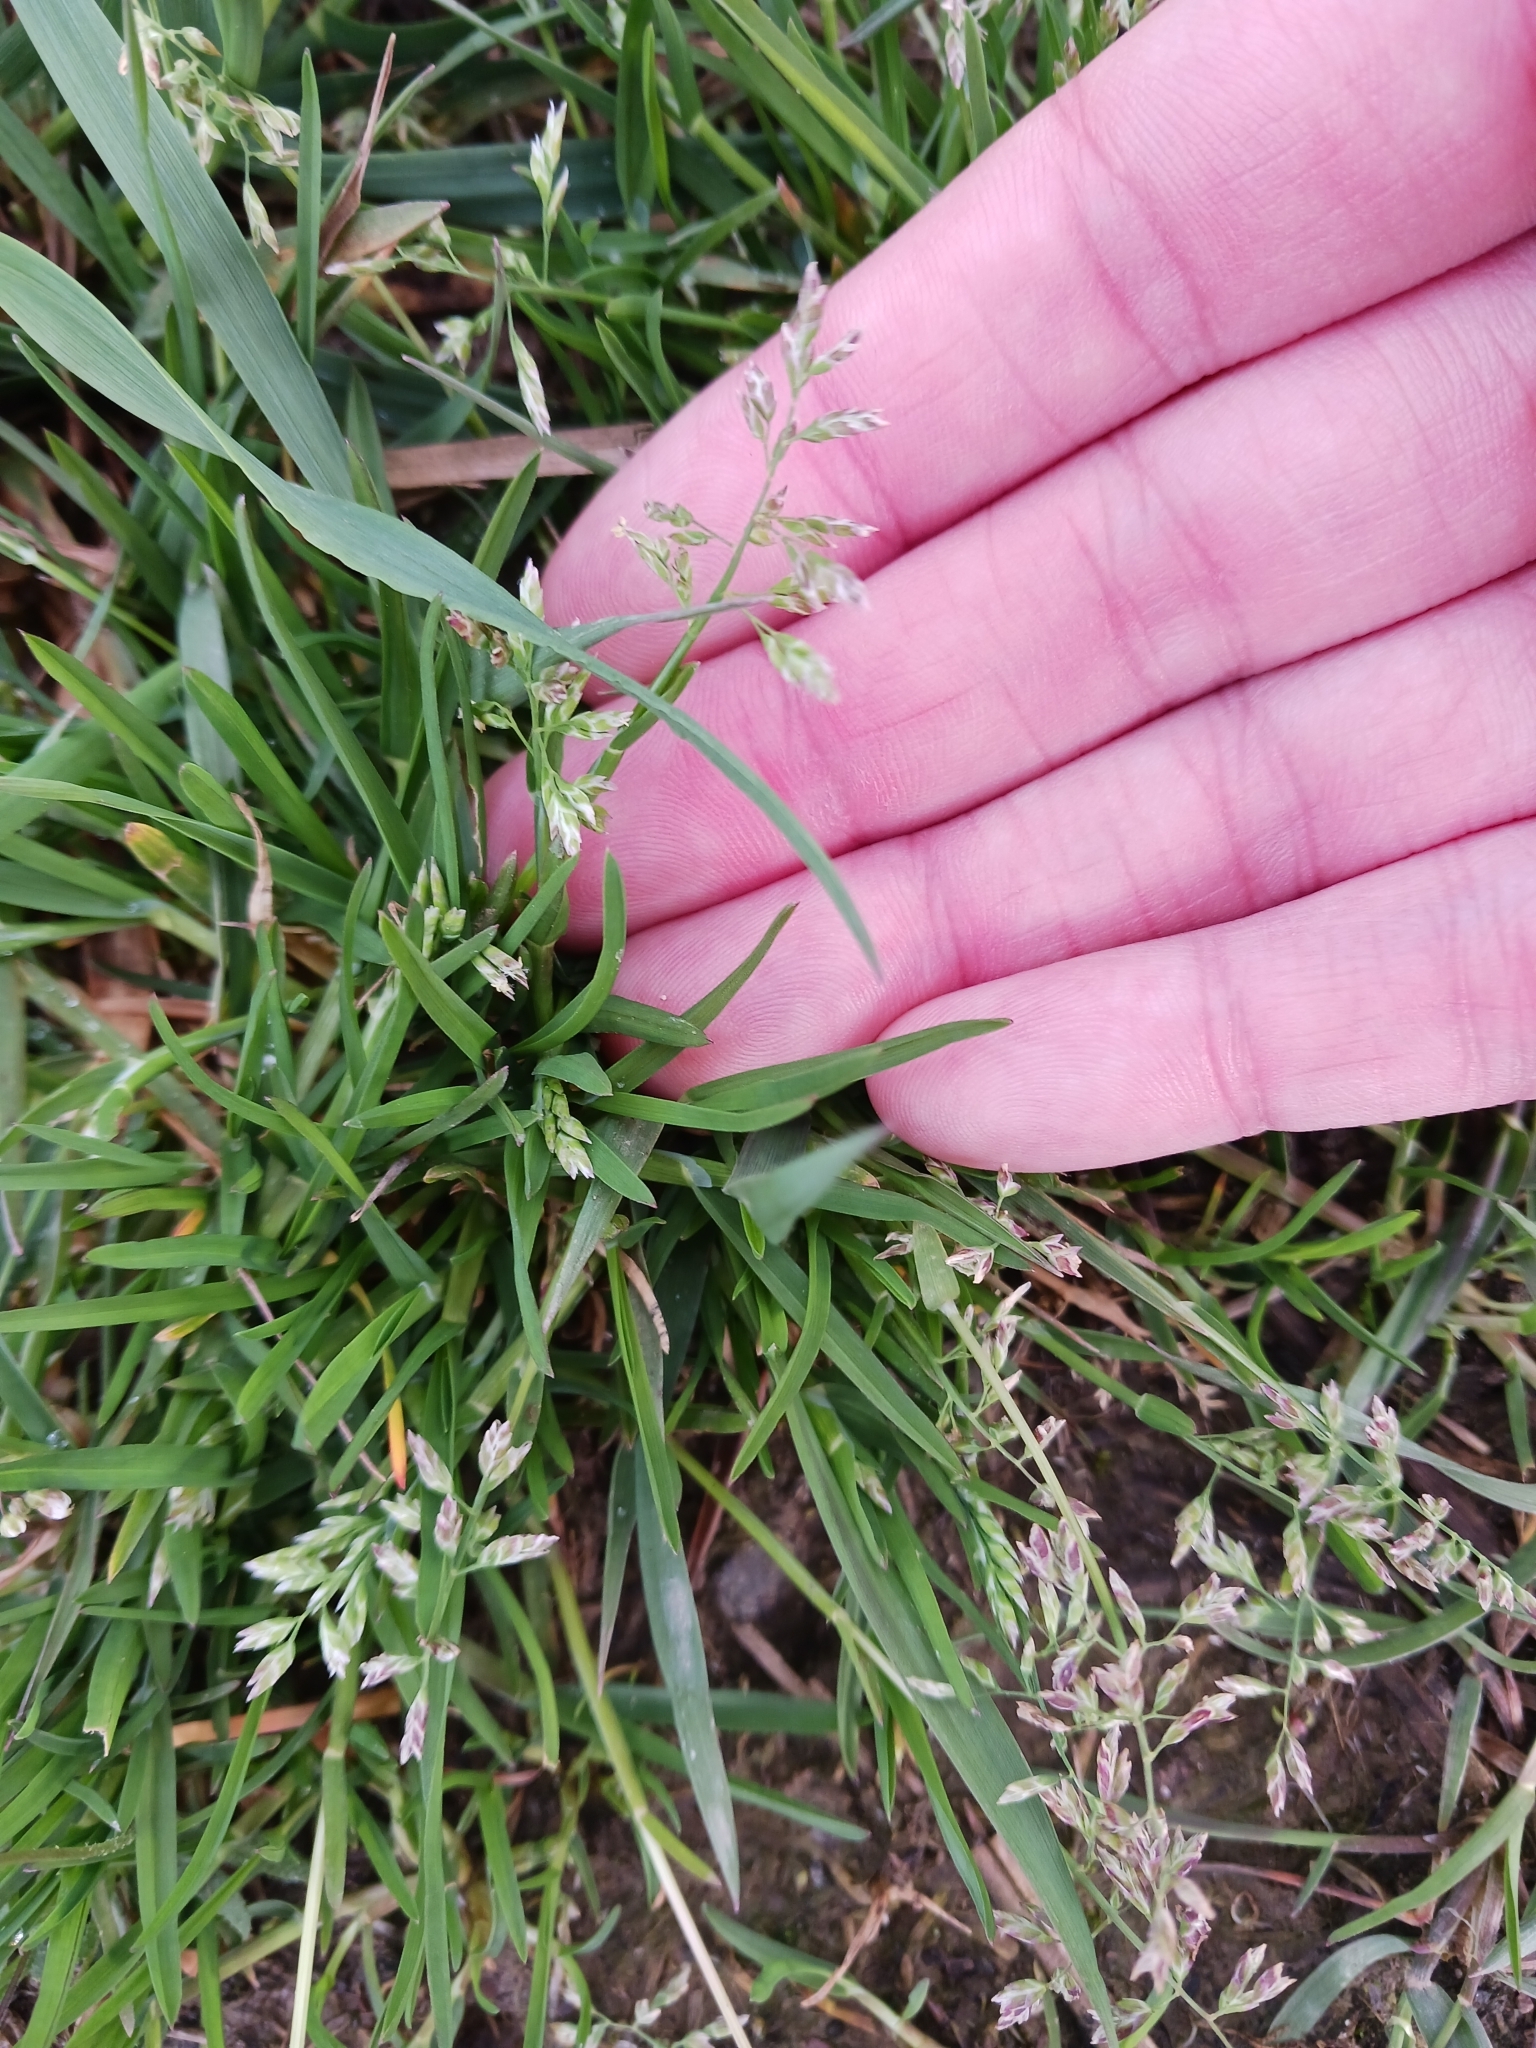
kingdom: Plantae
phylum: Tracheophyta
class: Liliopsida
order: Poales
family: Poaceae
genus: Poa
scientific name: Poa annua
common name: Annual bluegrass
